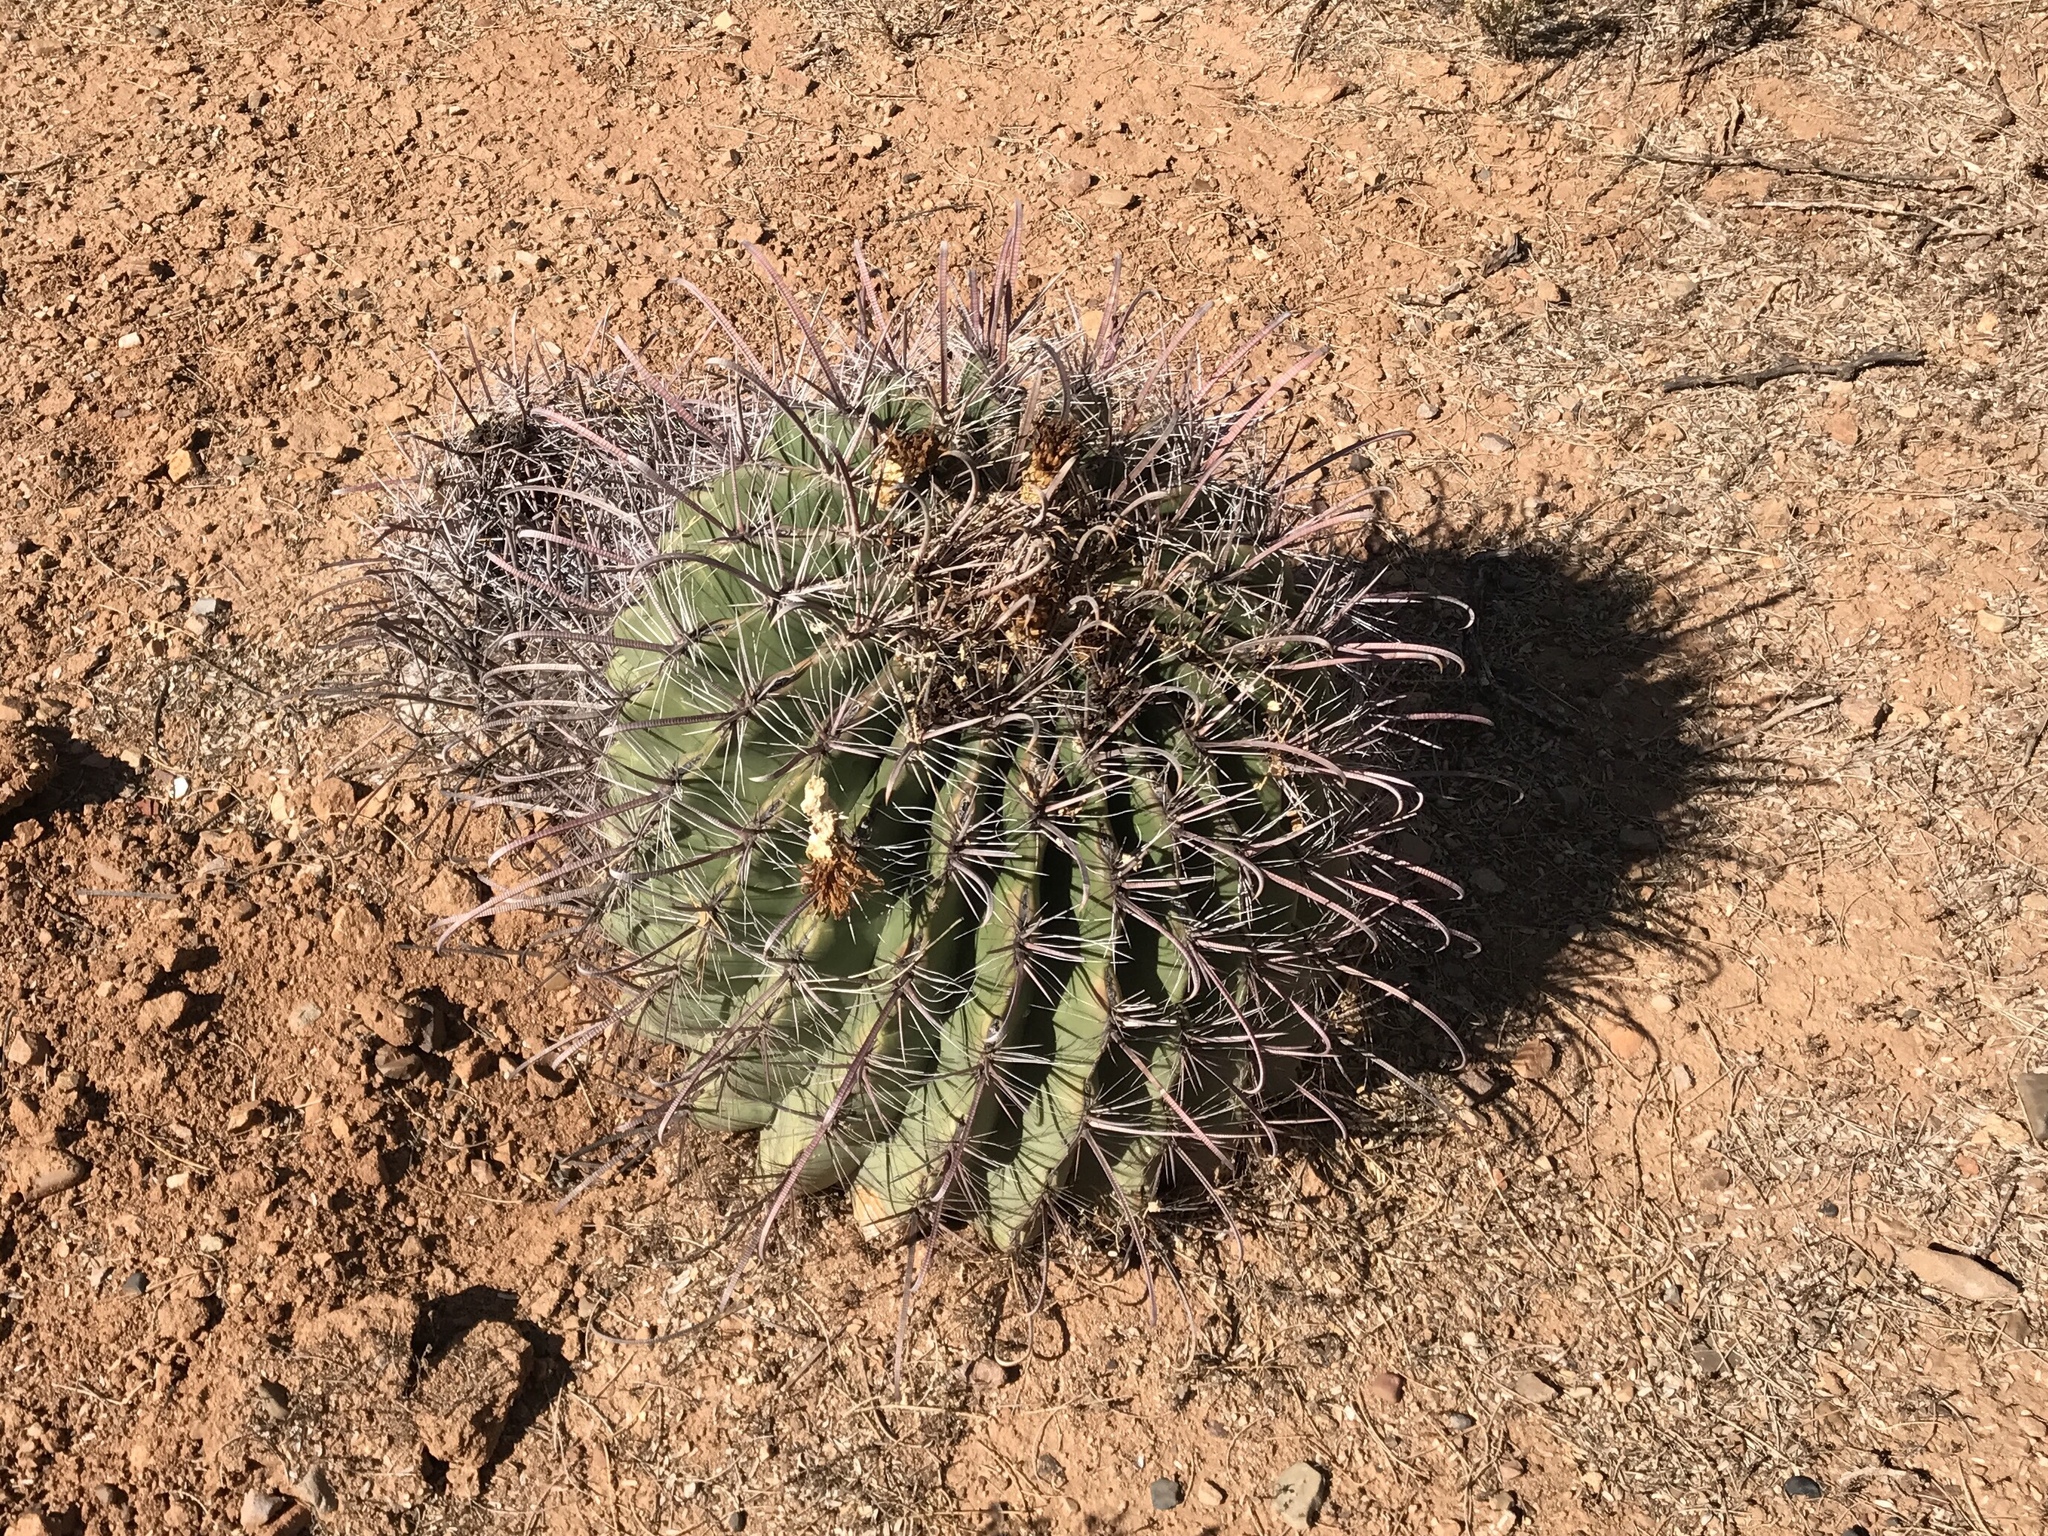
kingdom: Plantae
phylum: Tracheophyta
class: Magnoliopsida
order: Caryophyllales
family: Cactaceae
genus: Ferocactus
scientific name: Ferocactus wislizeni
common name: Candy barrel cactus
